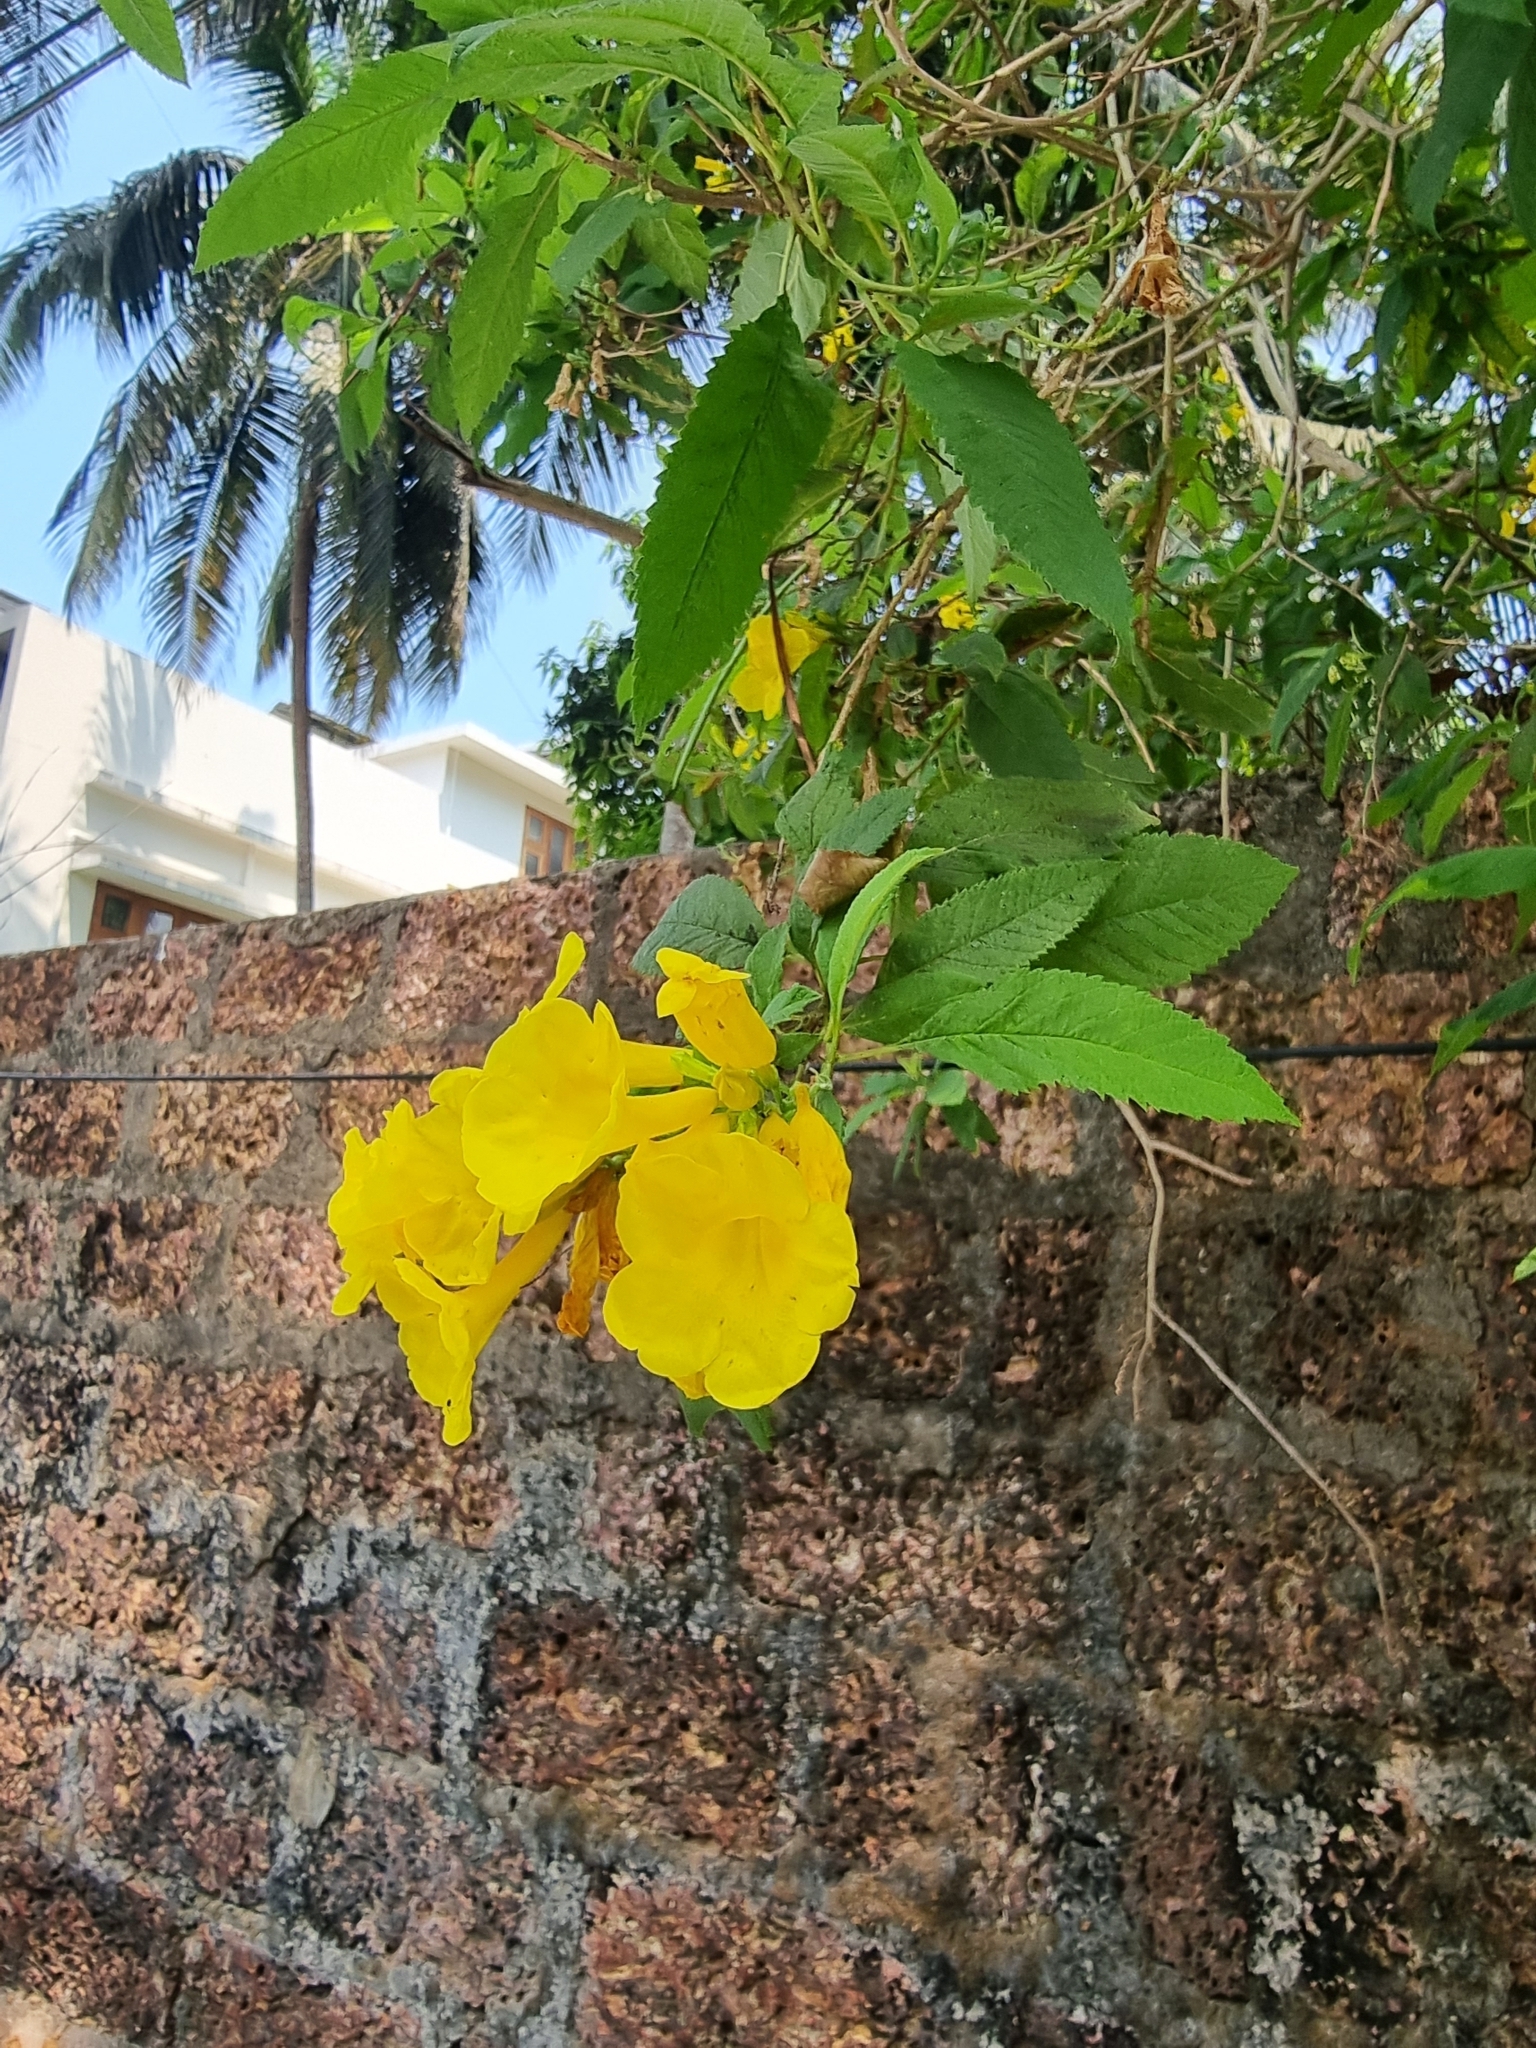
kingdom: Plantae
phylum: Tracheophyta
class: Magnoliopsida
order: Lamiales
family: Bignoniaceae
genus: Tecoma
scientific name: Tecoma stans
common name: Yellow trumpetbush
